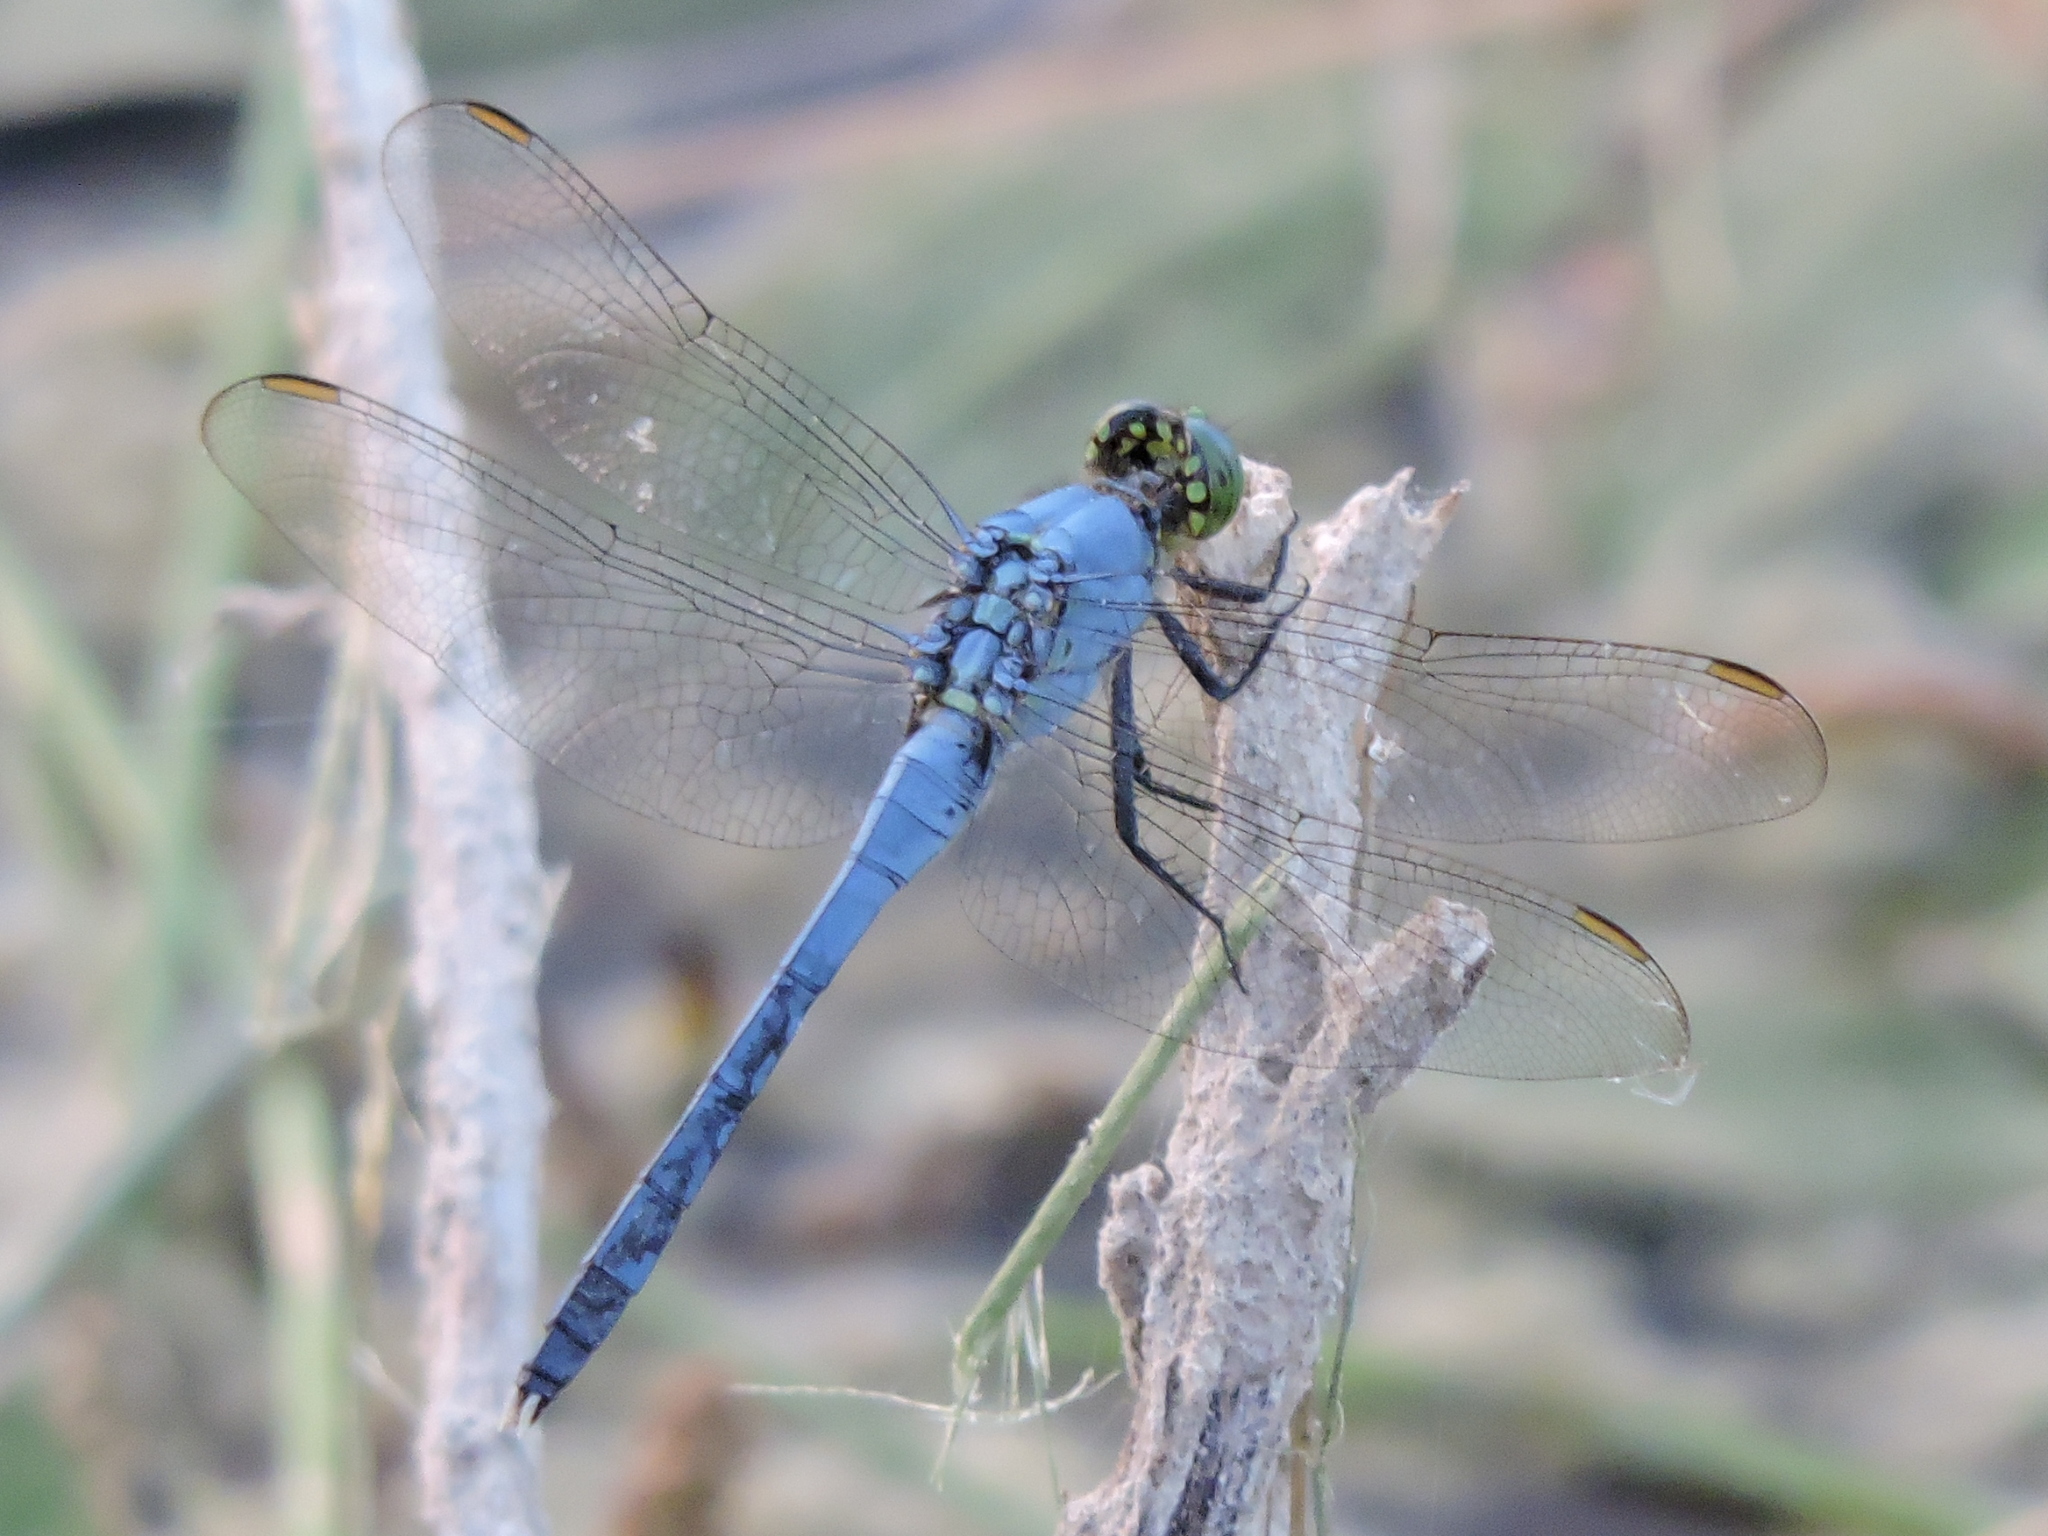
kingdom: Animalia
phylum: Arthropoda
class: Insecta
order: Odonata
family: Libellulidae
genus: Erythemis
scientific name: Erythemis simplicicollis
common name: Eastern pondhawk
